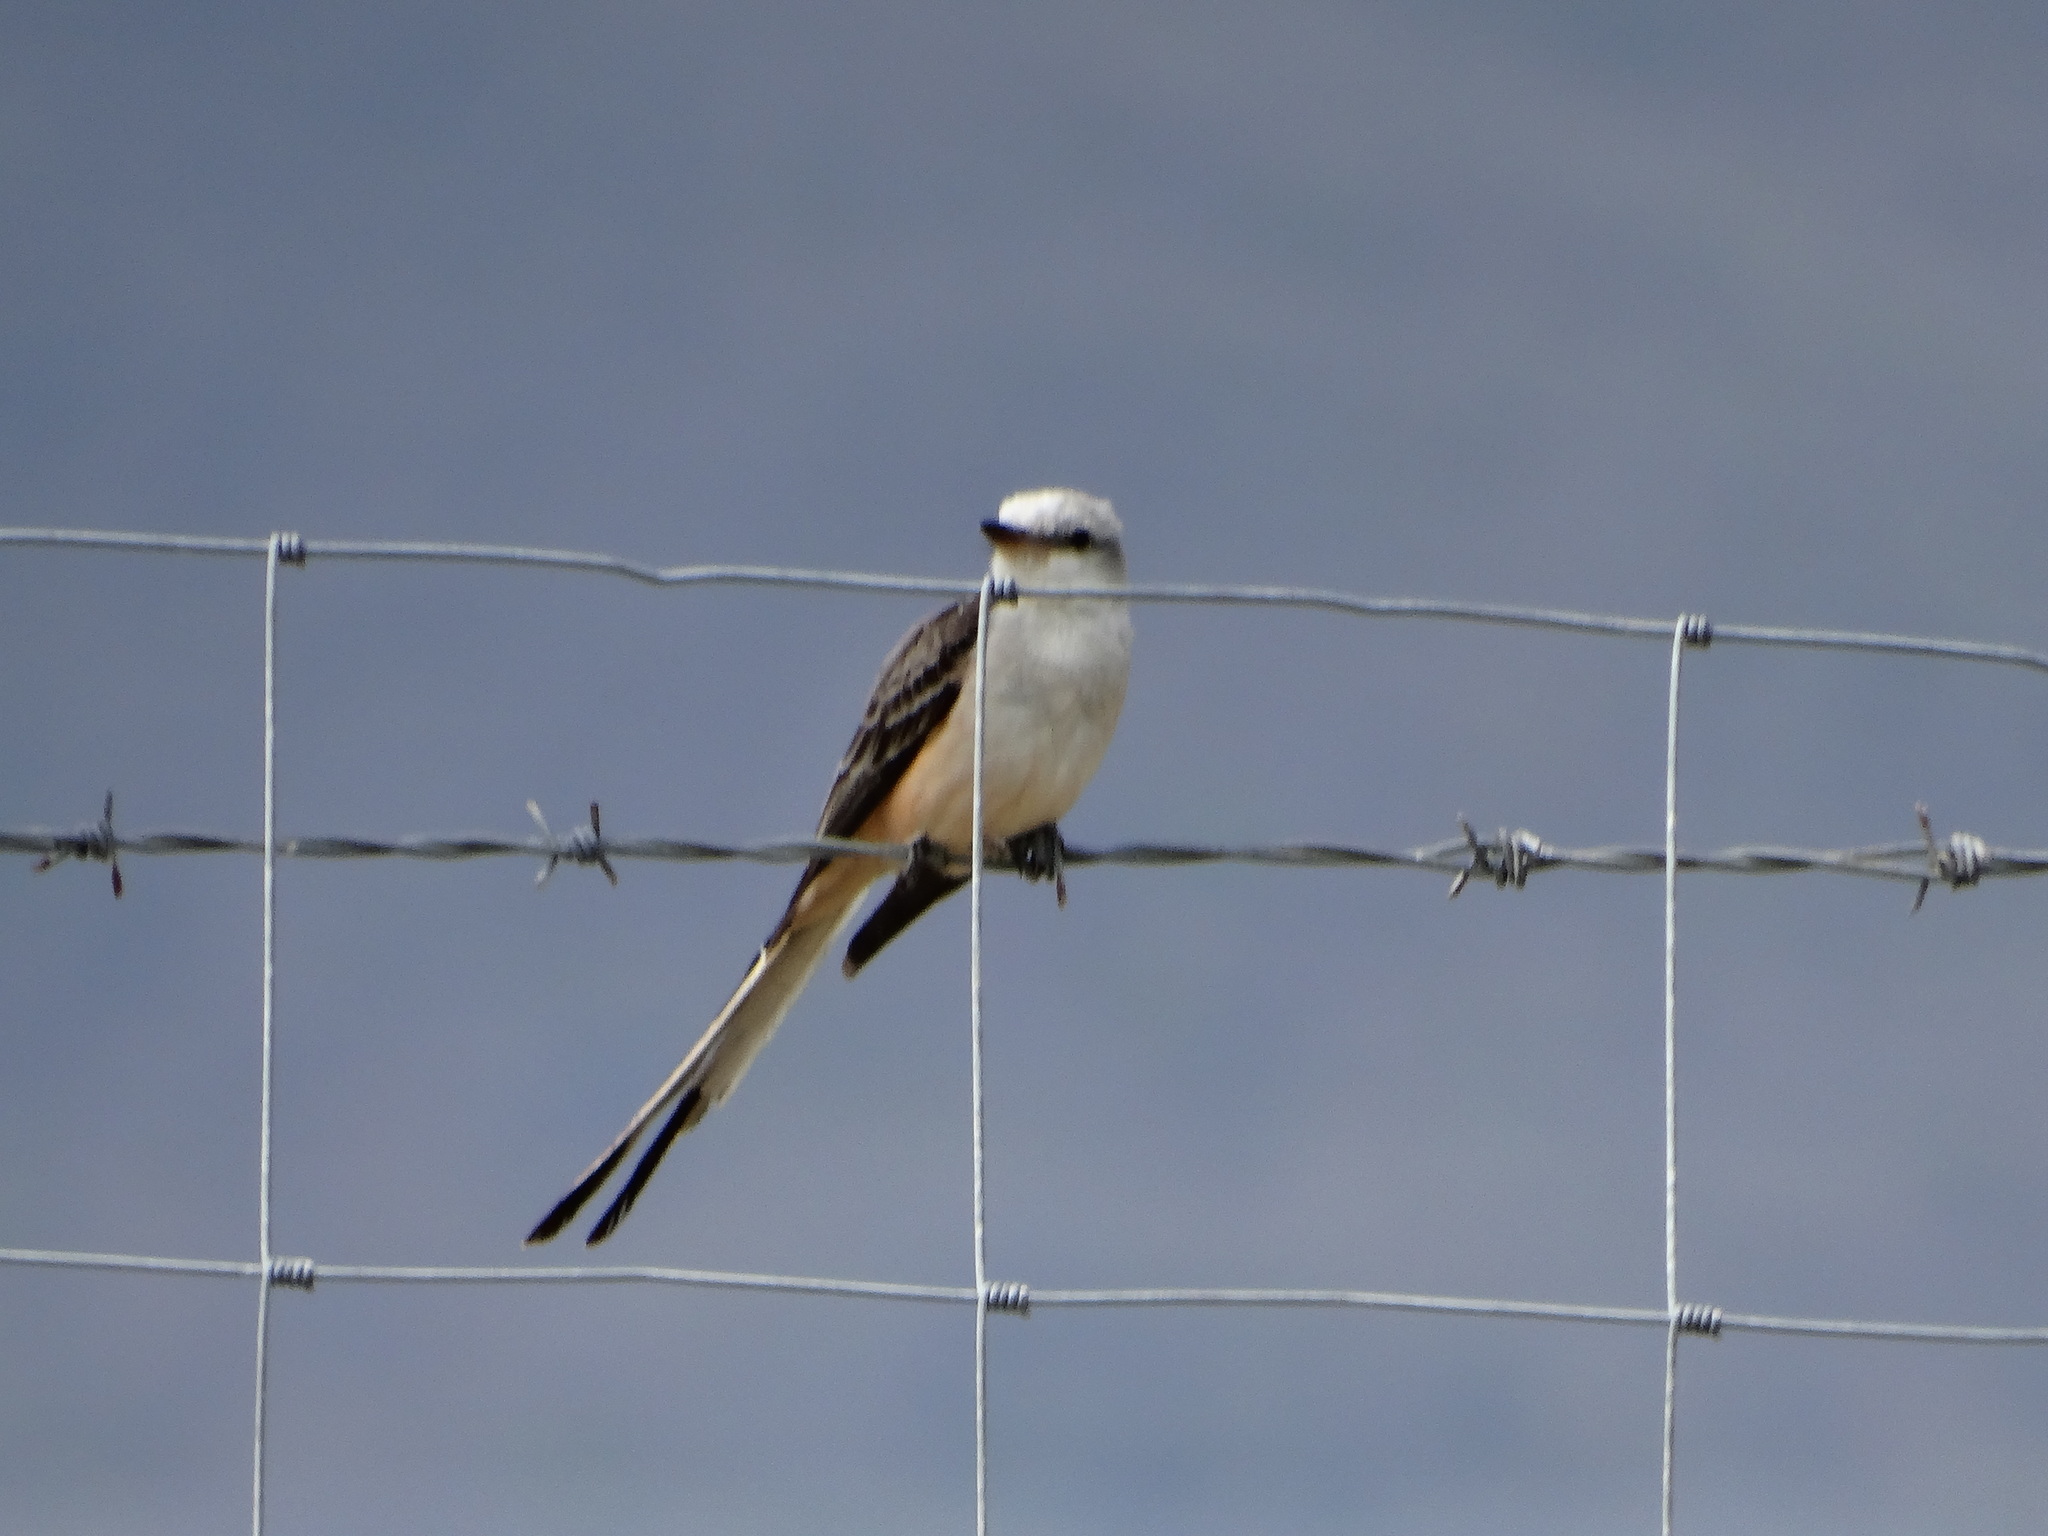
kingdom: Animalia
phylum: Chordata
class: Aves
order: Passeriformes
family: Tyrannidae
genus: Tyrannus
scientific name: Tyrannus forficatus
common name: Scissor-tailed flycatcher
